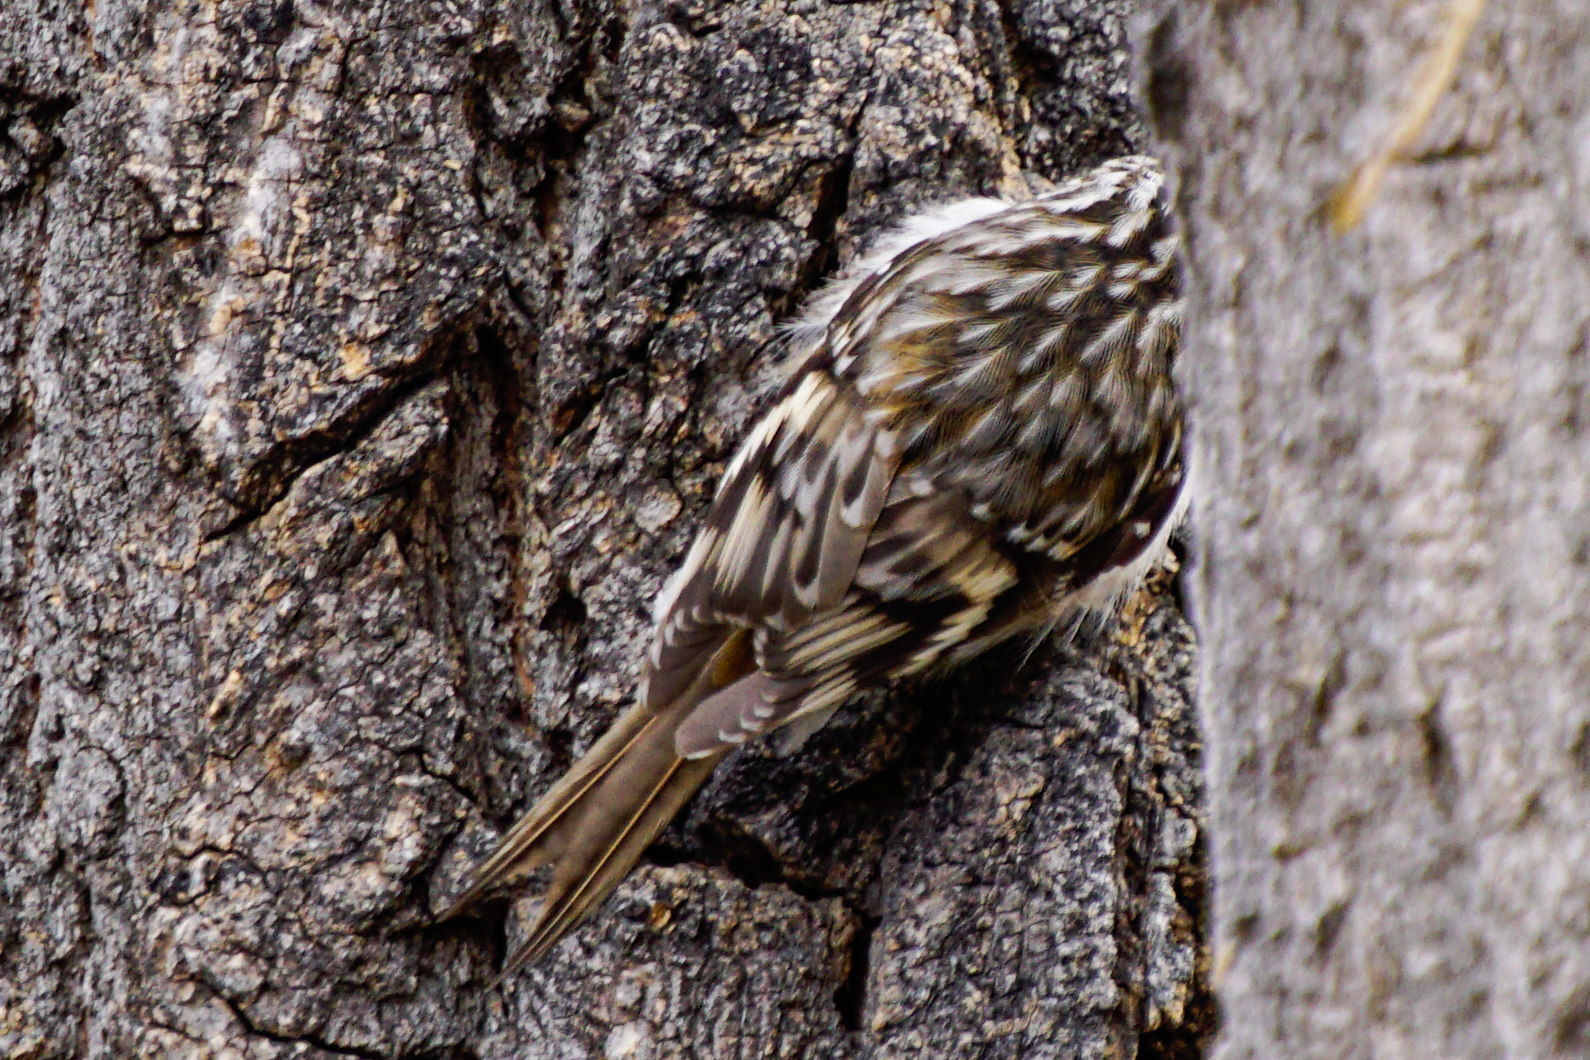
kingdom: Animalia
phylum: Chordata
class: Aves
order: Passeriformes
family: Certhiidae
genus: Certhia
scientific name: Certhia americana
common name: Brown creeper
